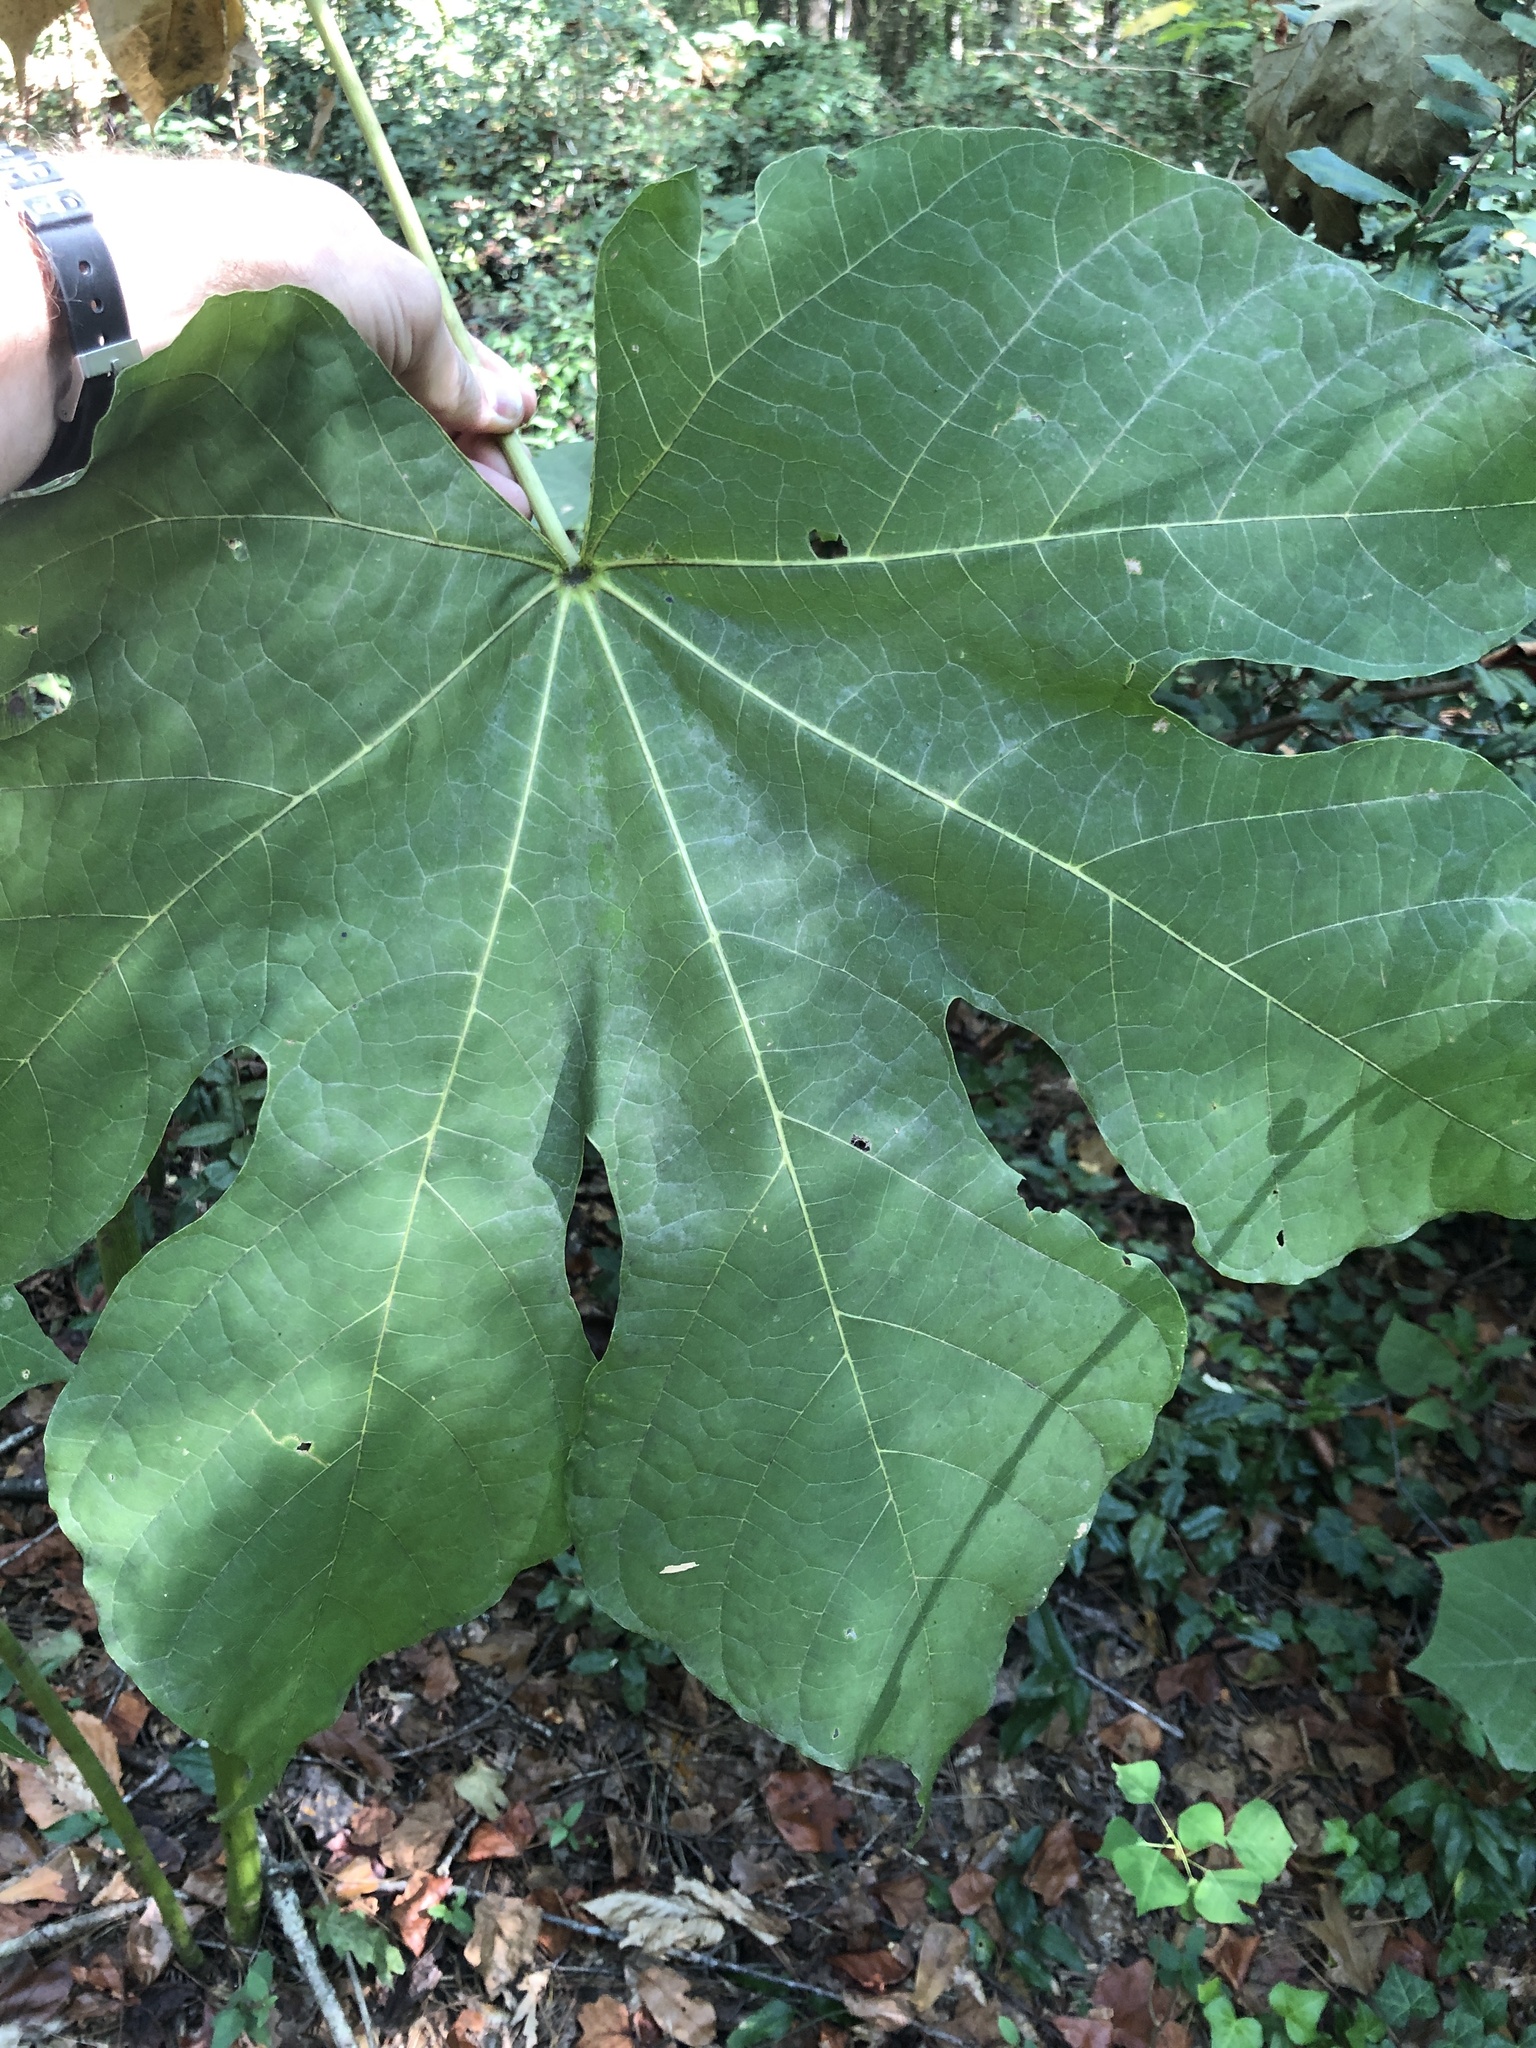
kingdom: Plantae
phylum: Tracheophyta
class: Magnoliopsida
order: Malvales
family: Malvaceae
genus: Firmiana
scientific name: Firmiana simplex
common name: Chinese parasoltree
